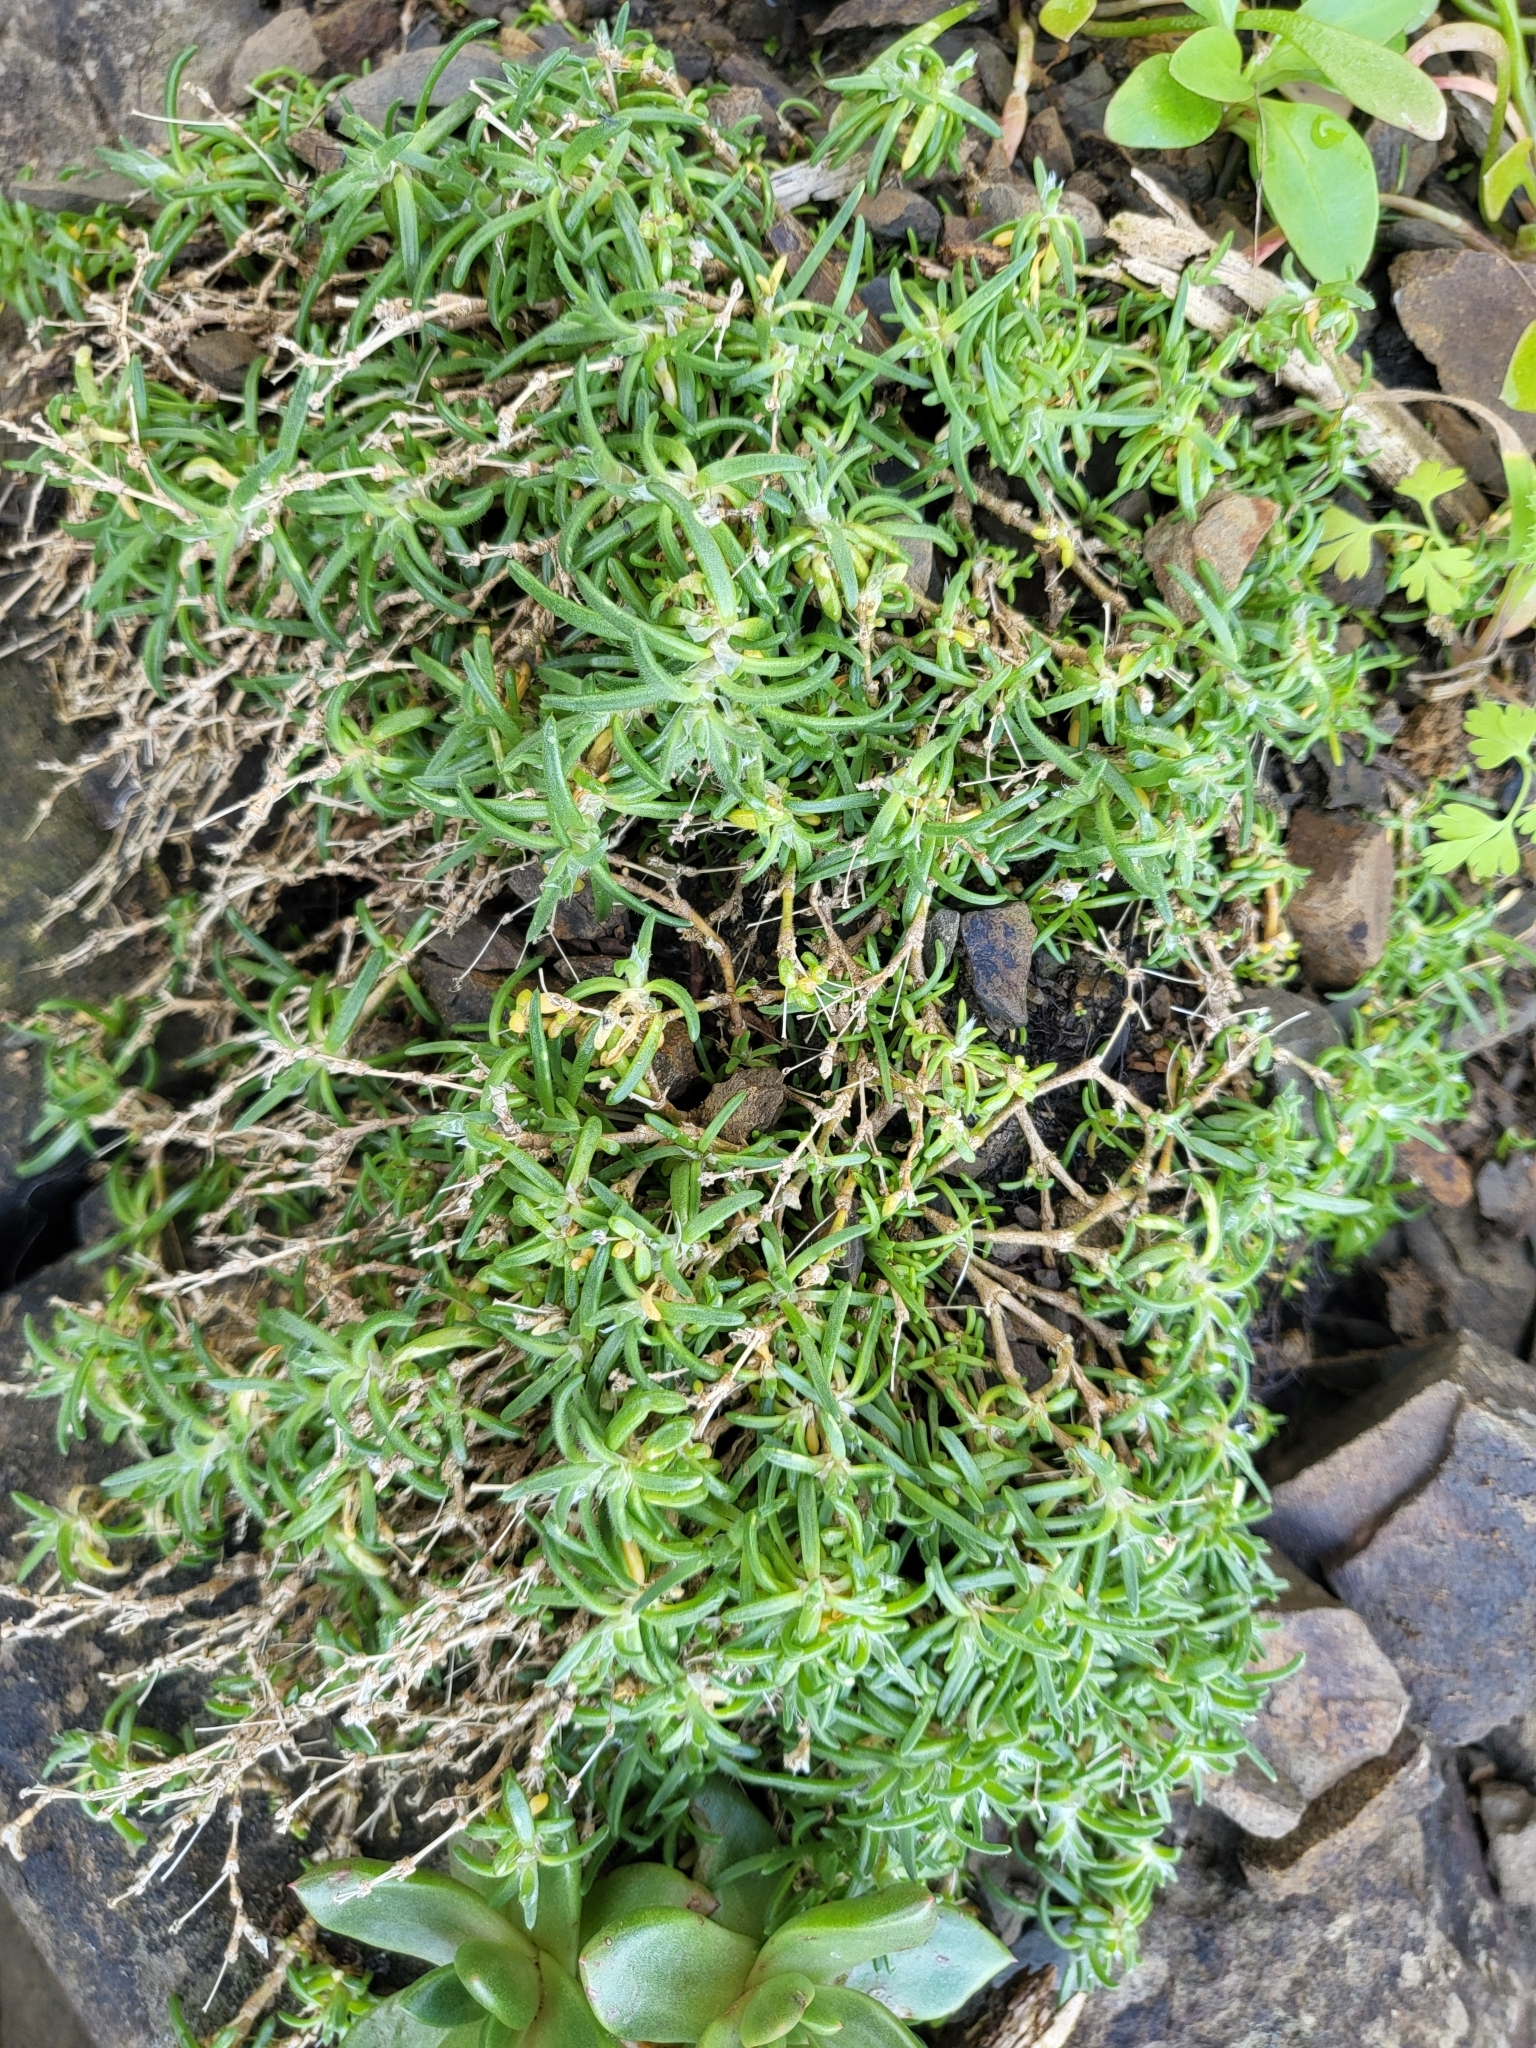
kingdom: Plantae
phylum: Tracheophyta
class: Magnoliopsida
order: Caryophyllales
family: Caryophyllaceae
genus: Spergularia
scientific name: Spergularia macrotheca
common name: Beach sand-spurrey
